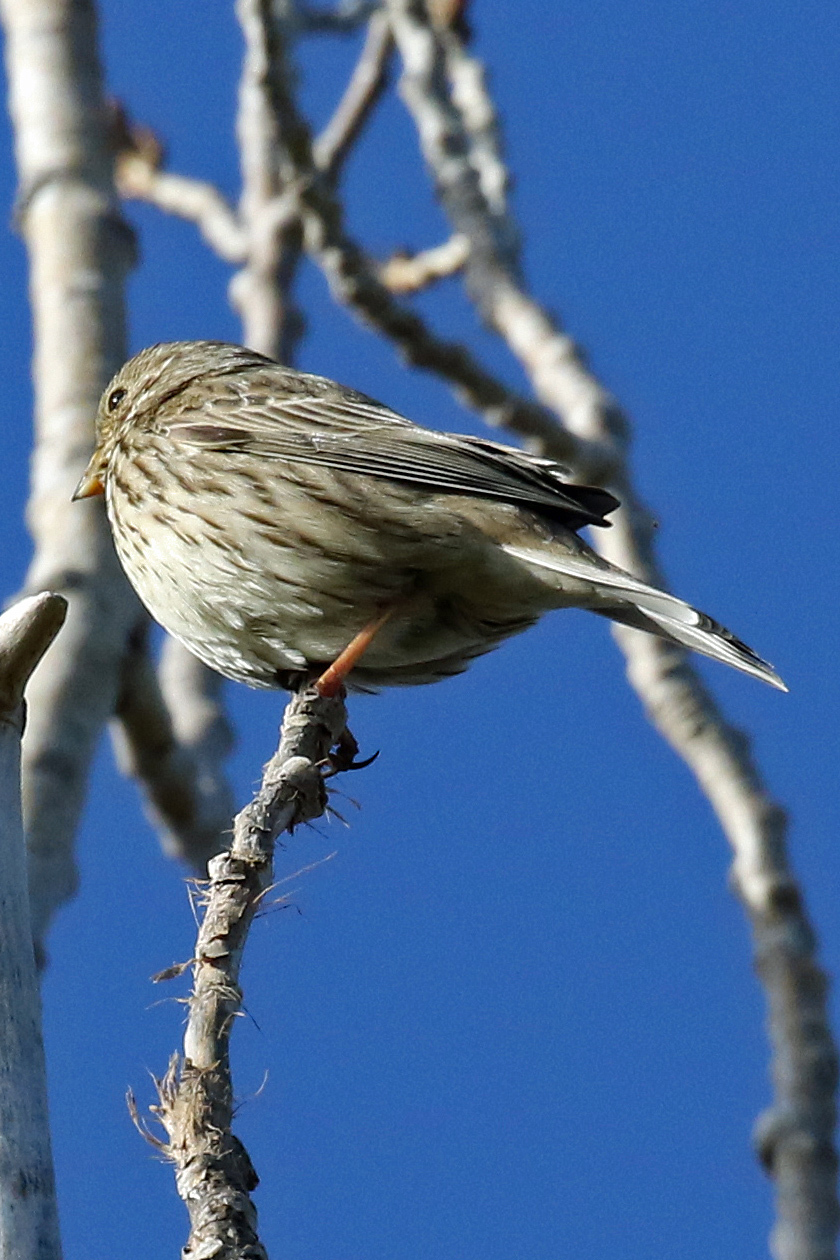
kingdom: Animalia
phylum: Chordata
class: Aves
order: Passeriformes
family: Emberizidae
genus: Emberiza
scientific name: Emberiza calandra
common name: Corn bunting
